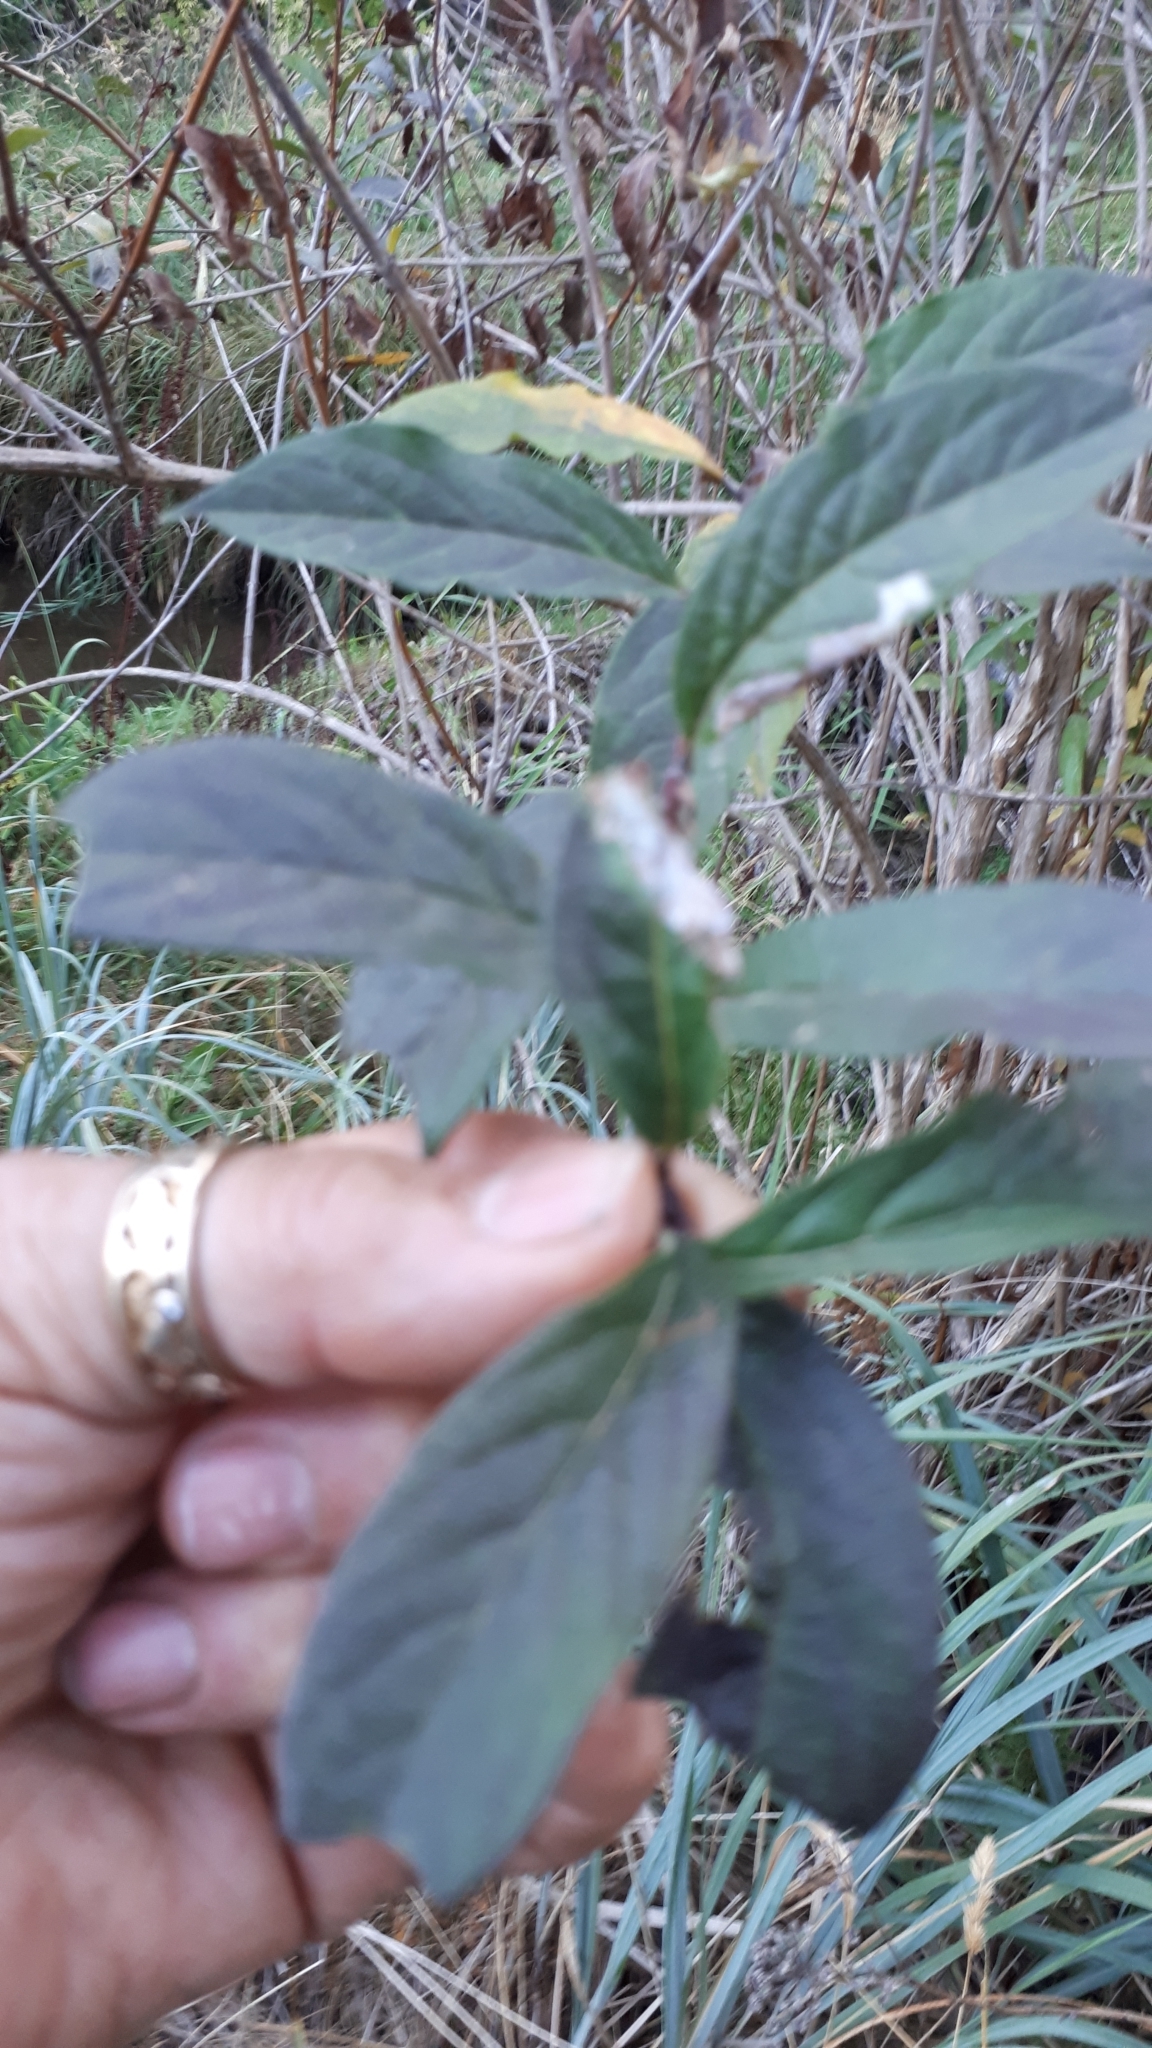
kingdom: Plantae
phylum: Tracheophyta
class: Magnoliopsida
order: Dipsacales
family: Caprifoliaceae
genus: Lonicera
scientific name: Lonicera involucrata
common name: Californian honeysuckle
